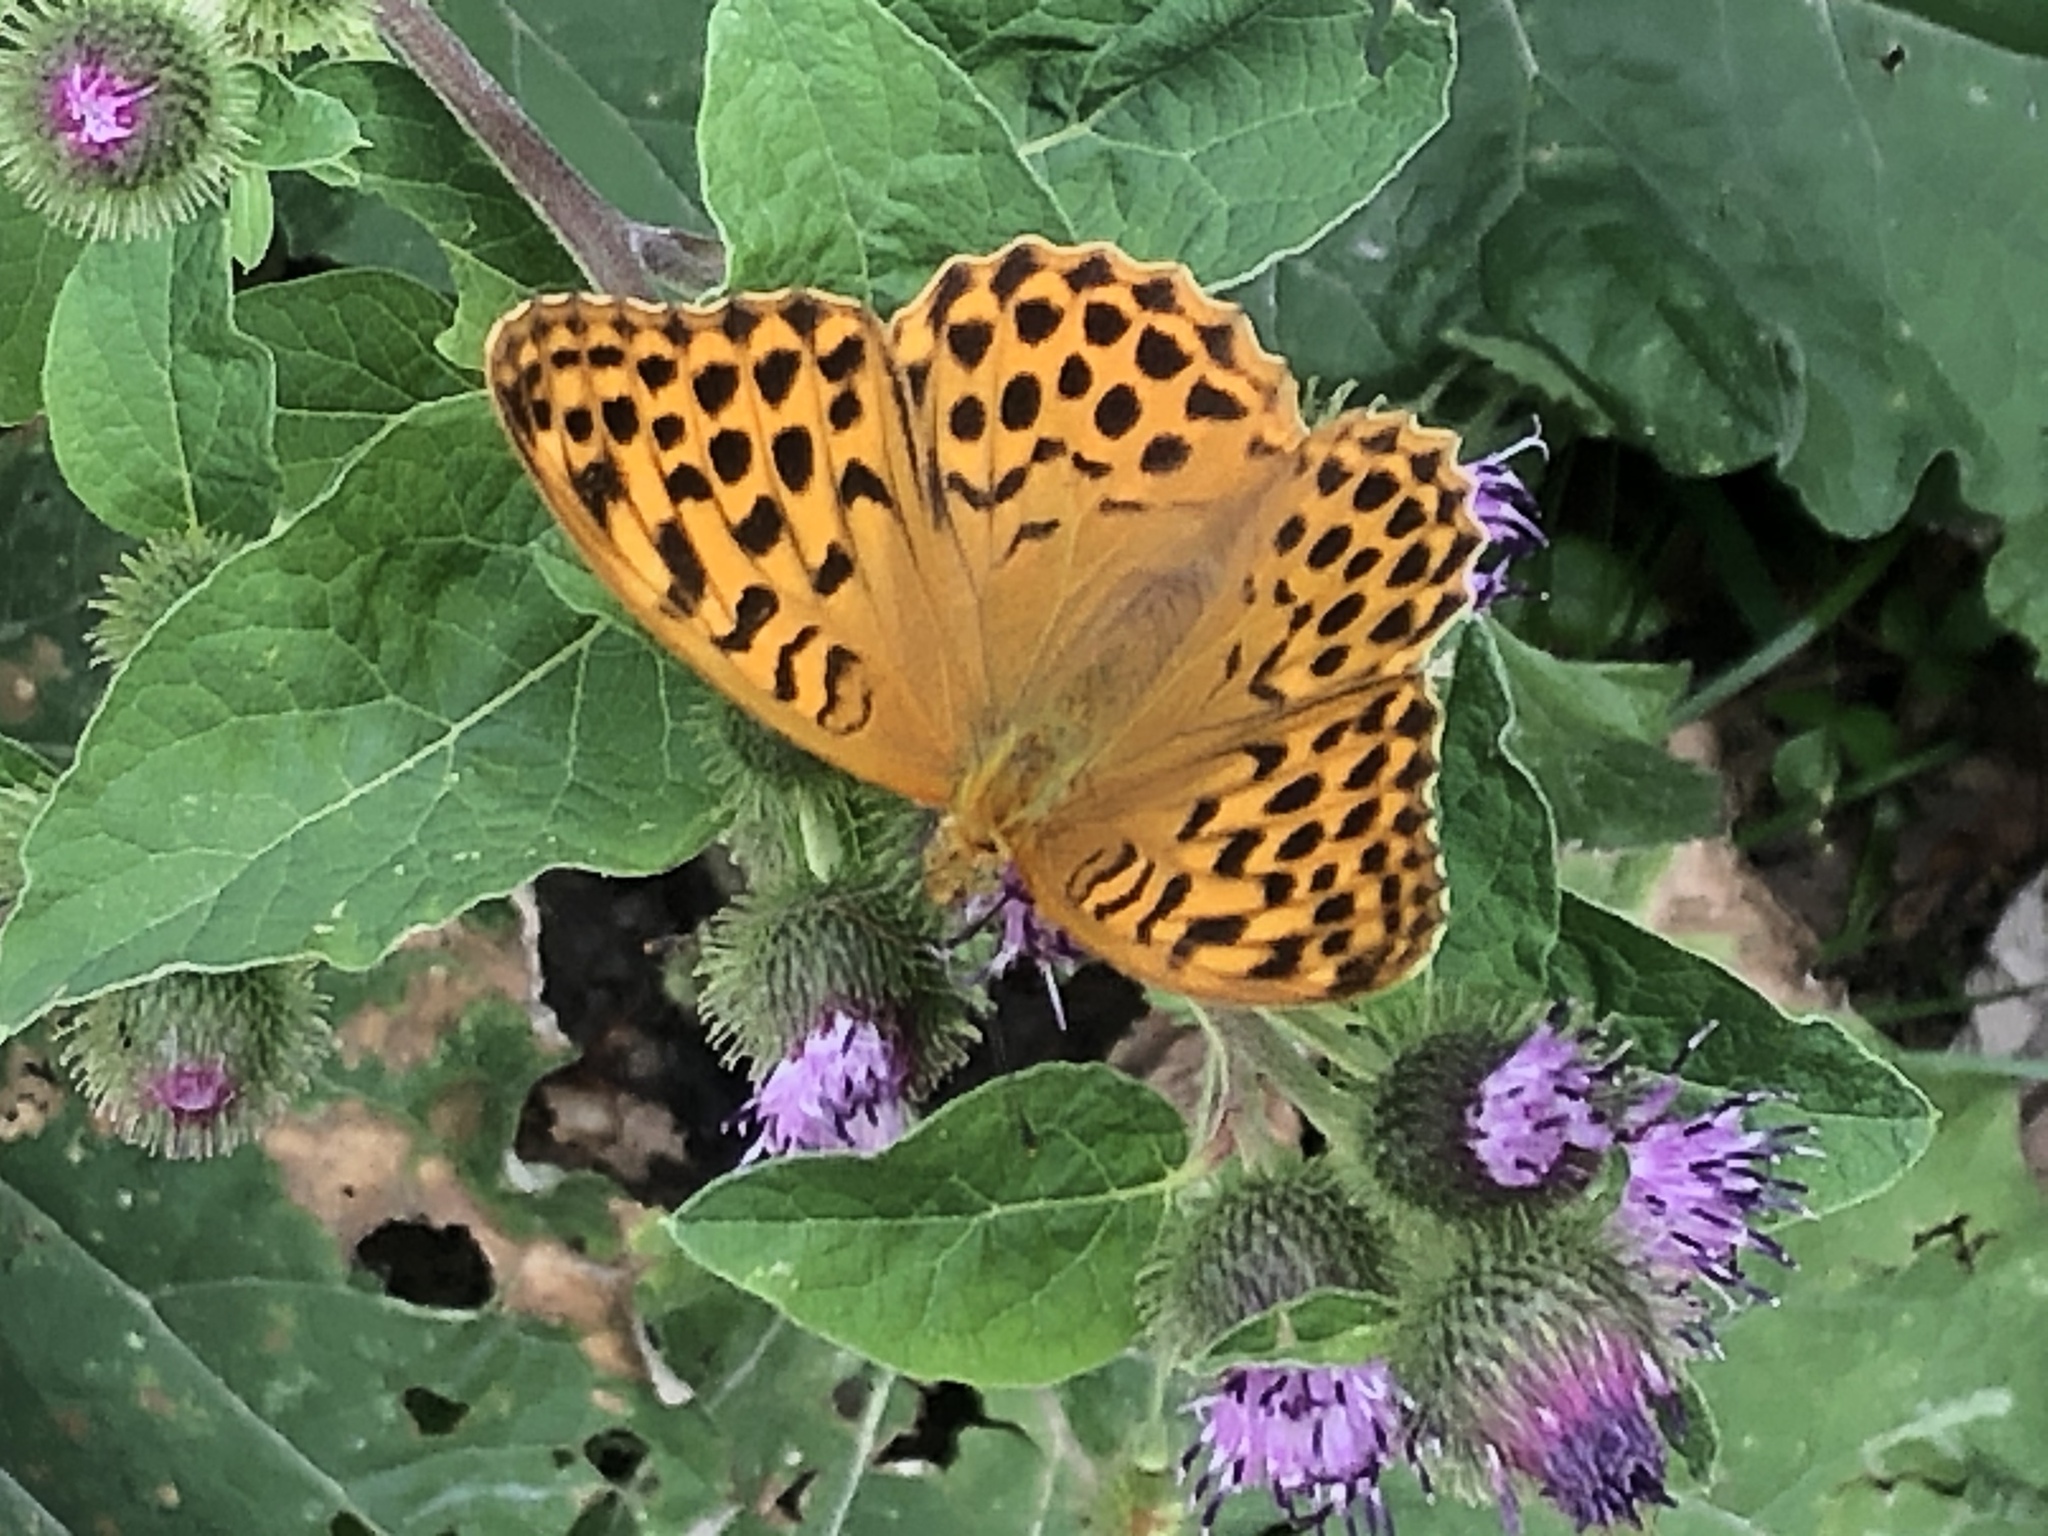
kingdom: Animalia
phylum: Arthropoda
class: Insecta
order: Lepidoptera
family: Nymphalidae
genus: Argynnis
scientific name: Argynnis paphia
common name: Silver-washed fritillary
